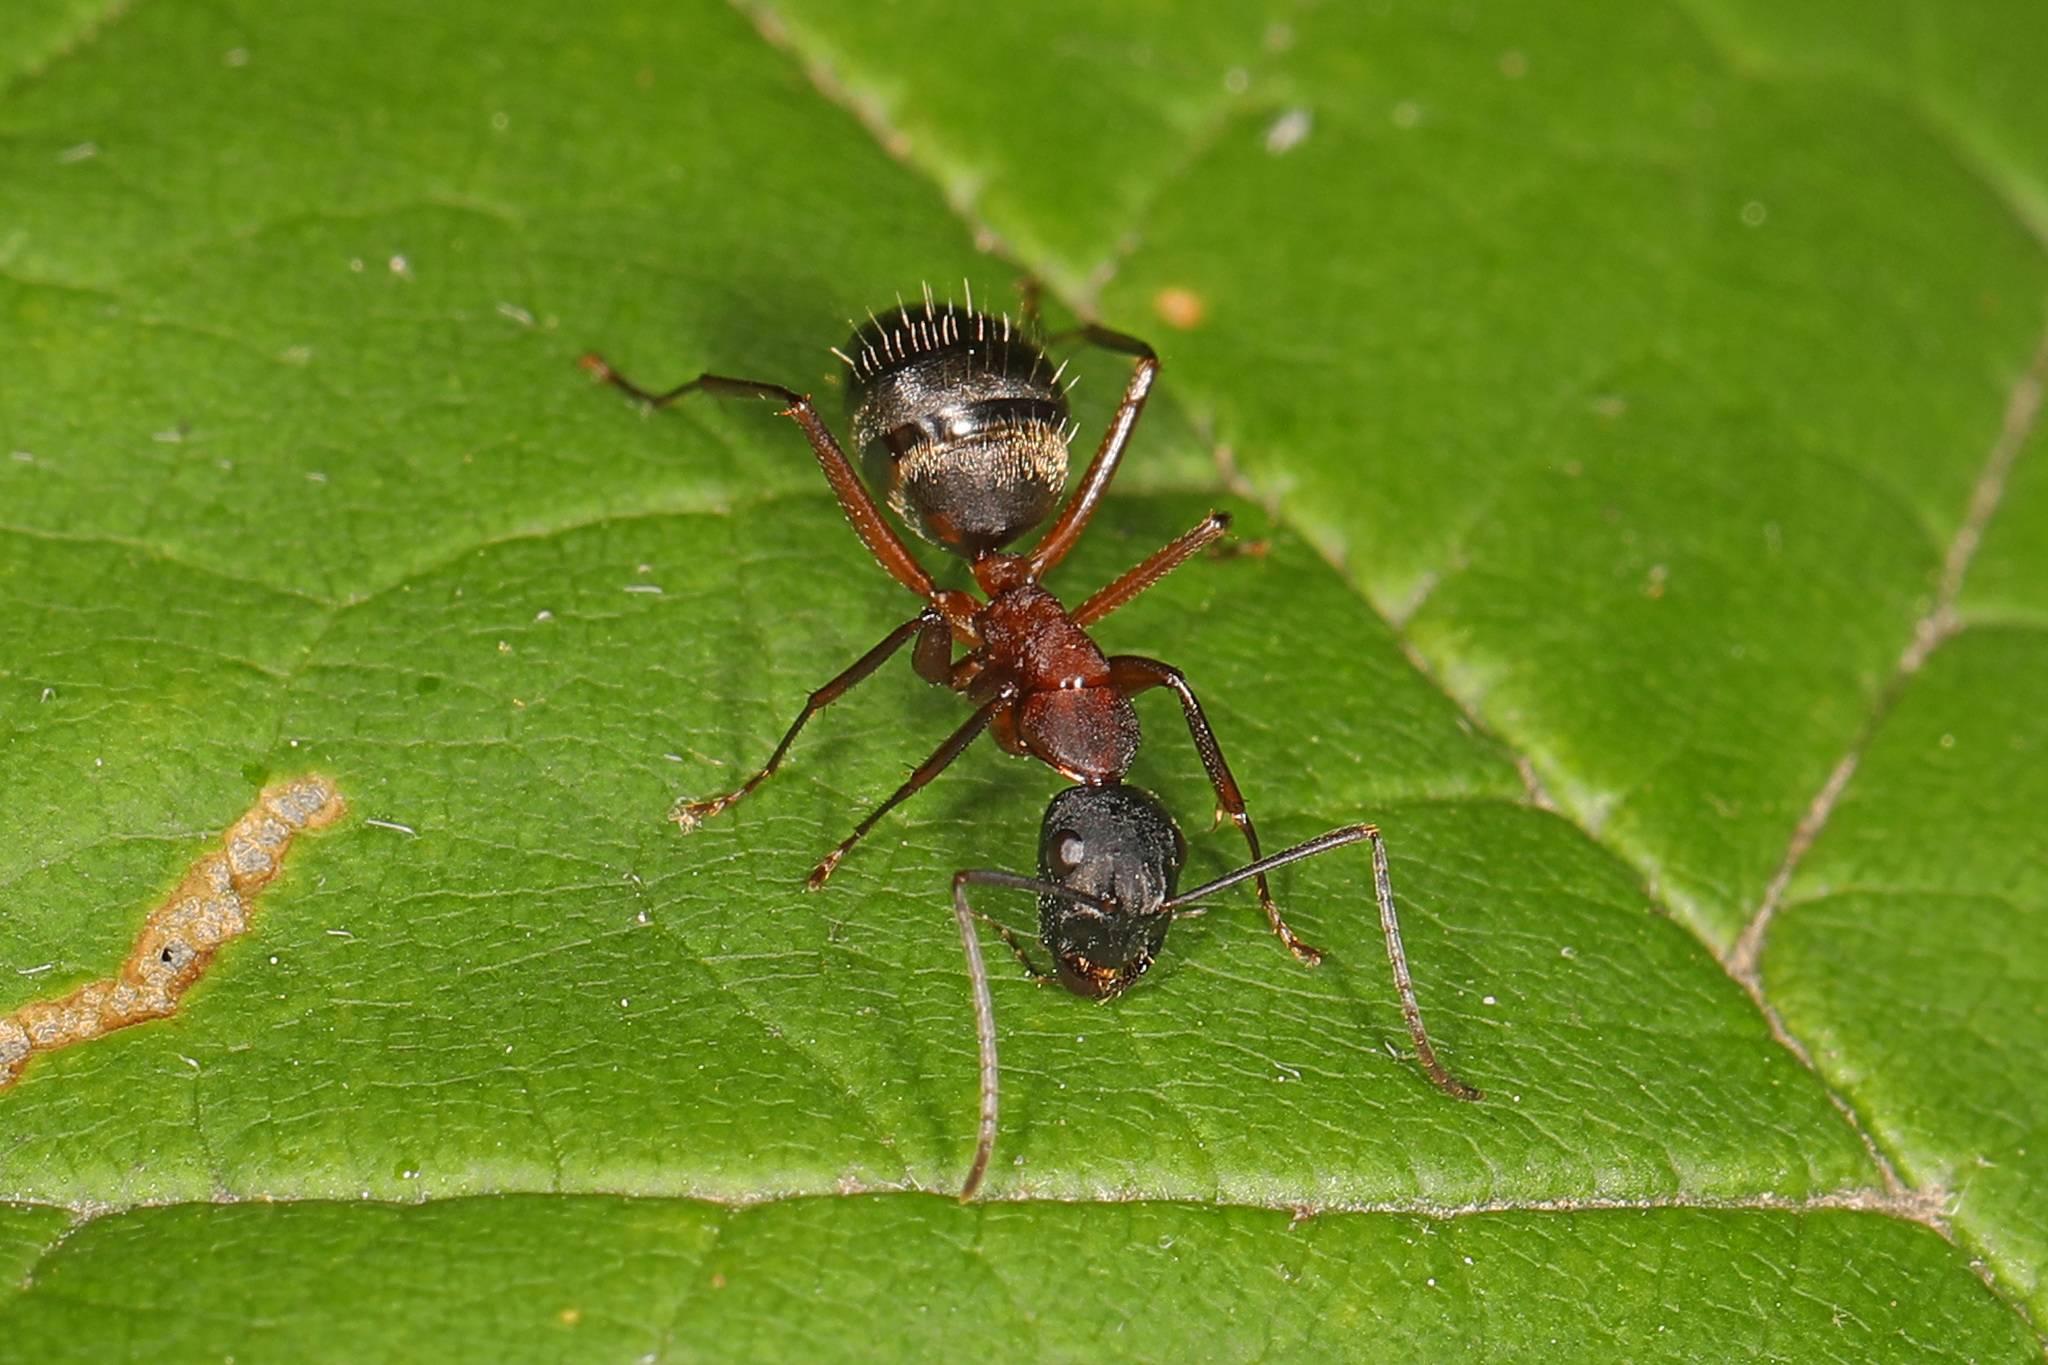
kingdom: Animalia
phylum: Arthropoda
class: Insecta
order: Hymenoptera
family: Formicidae
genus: Camponotus
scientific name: Camponotus chromaiodes
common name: Red carpenter ant
